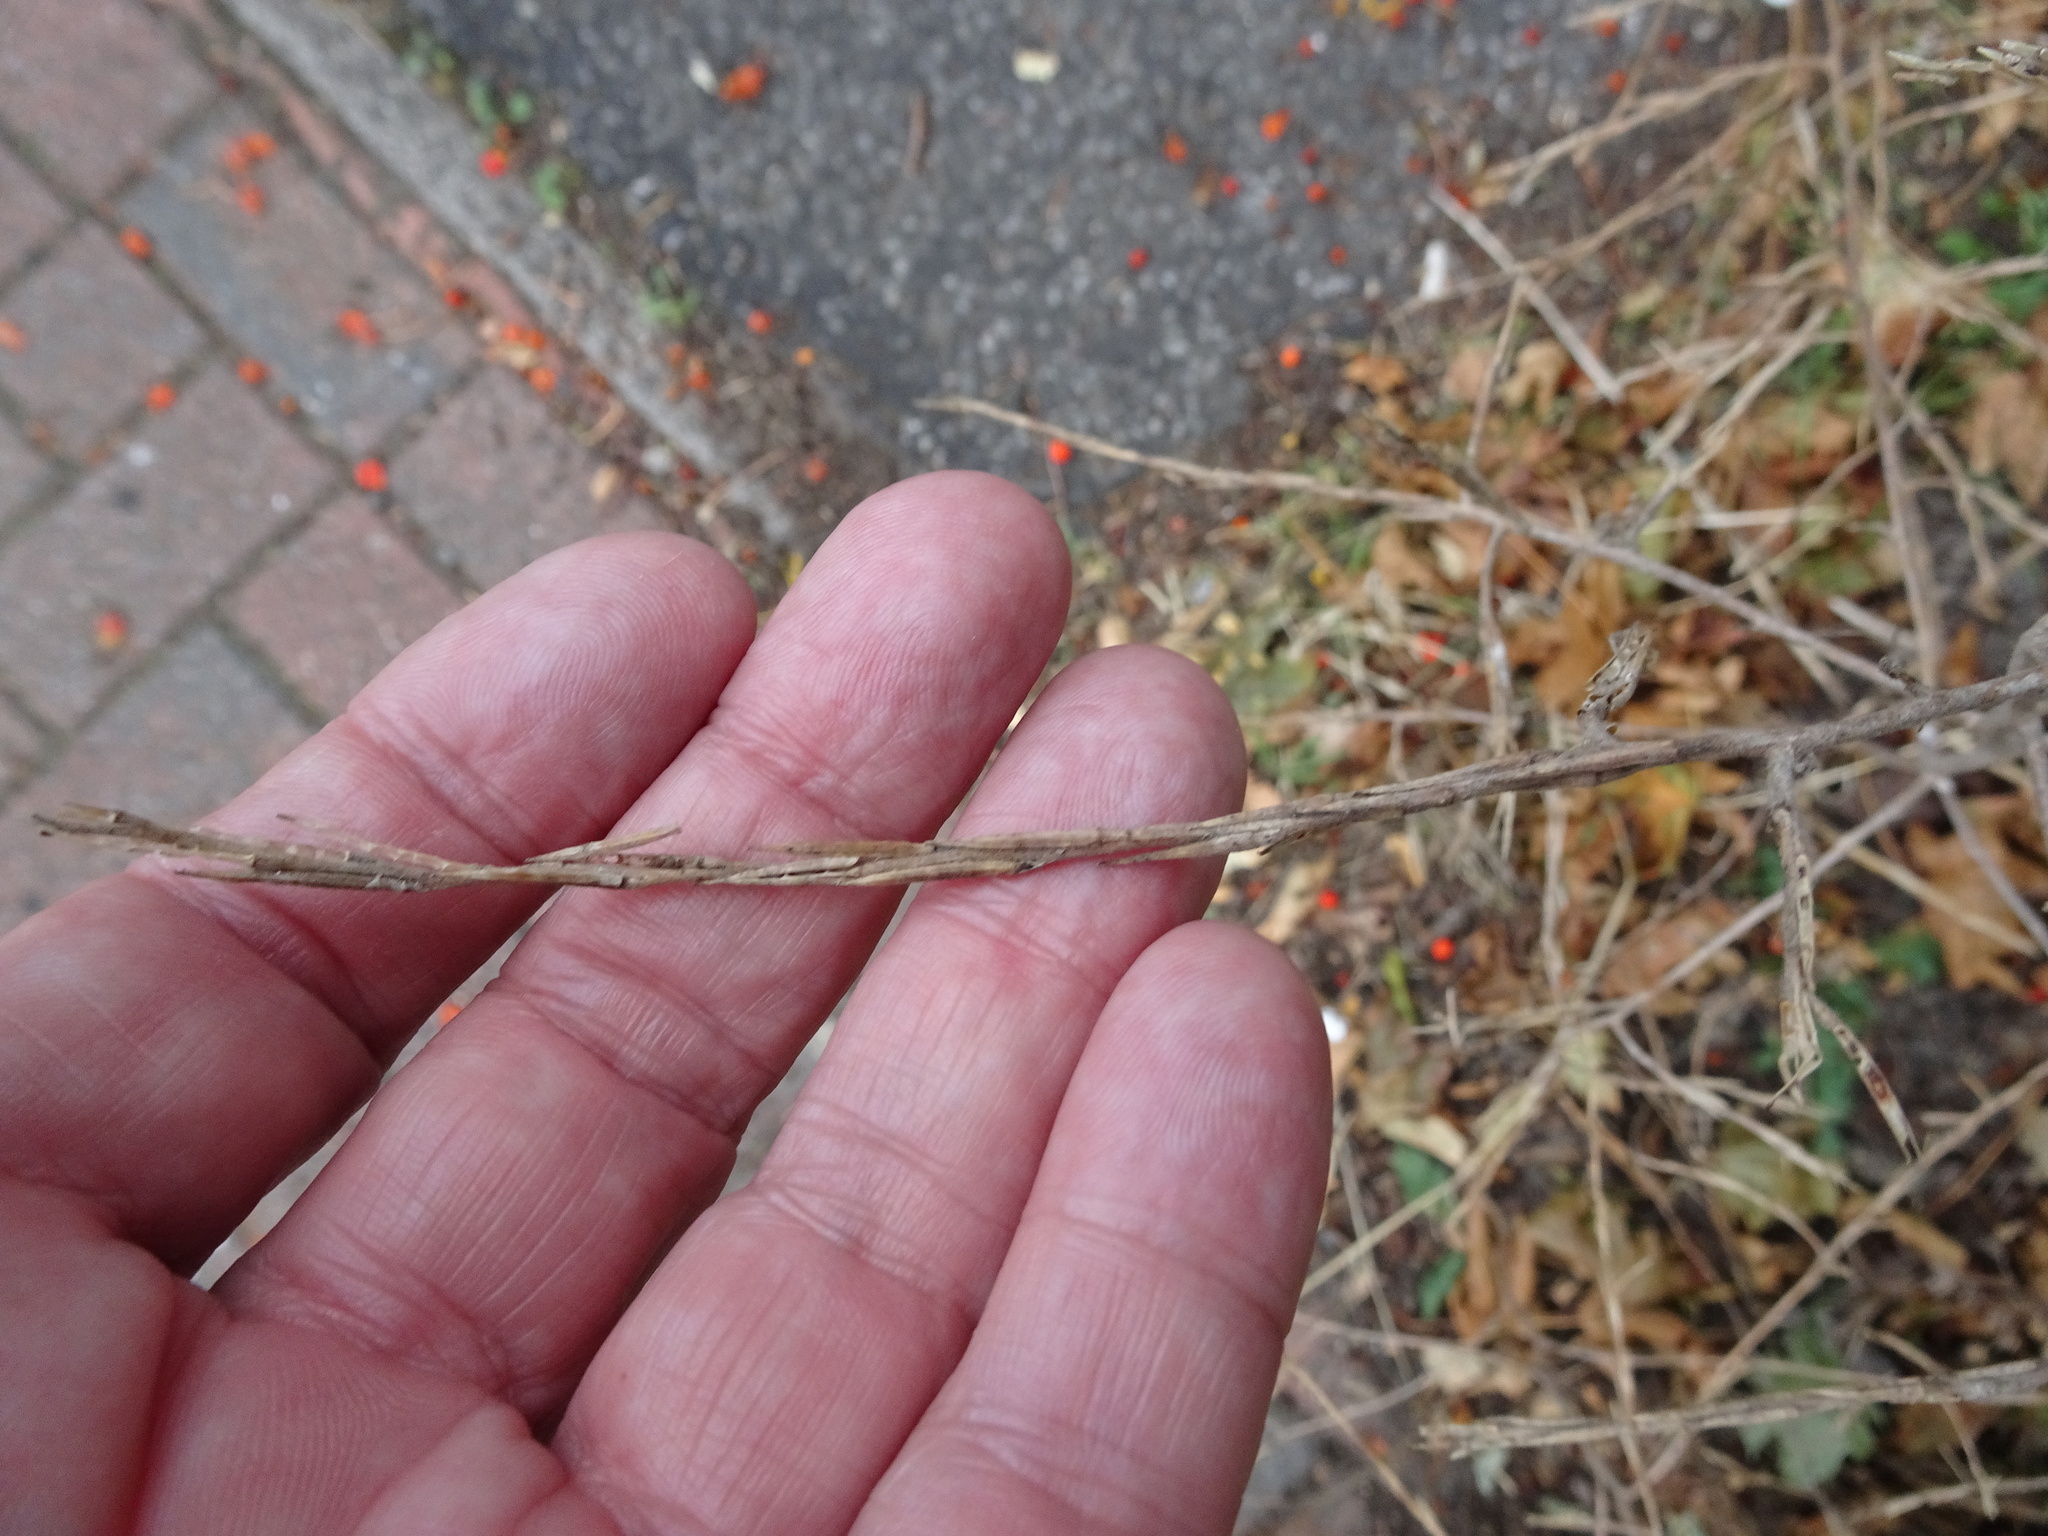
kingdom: Plantae
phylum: Tracheophyta
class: Magnoliopsida
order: Brassicales
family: Brassicaceae
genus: Sisymbrium
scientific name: Sisymbrium officinale
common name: Hedge mustard
